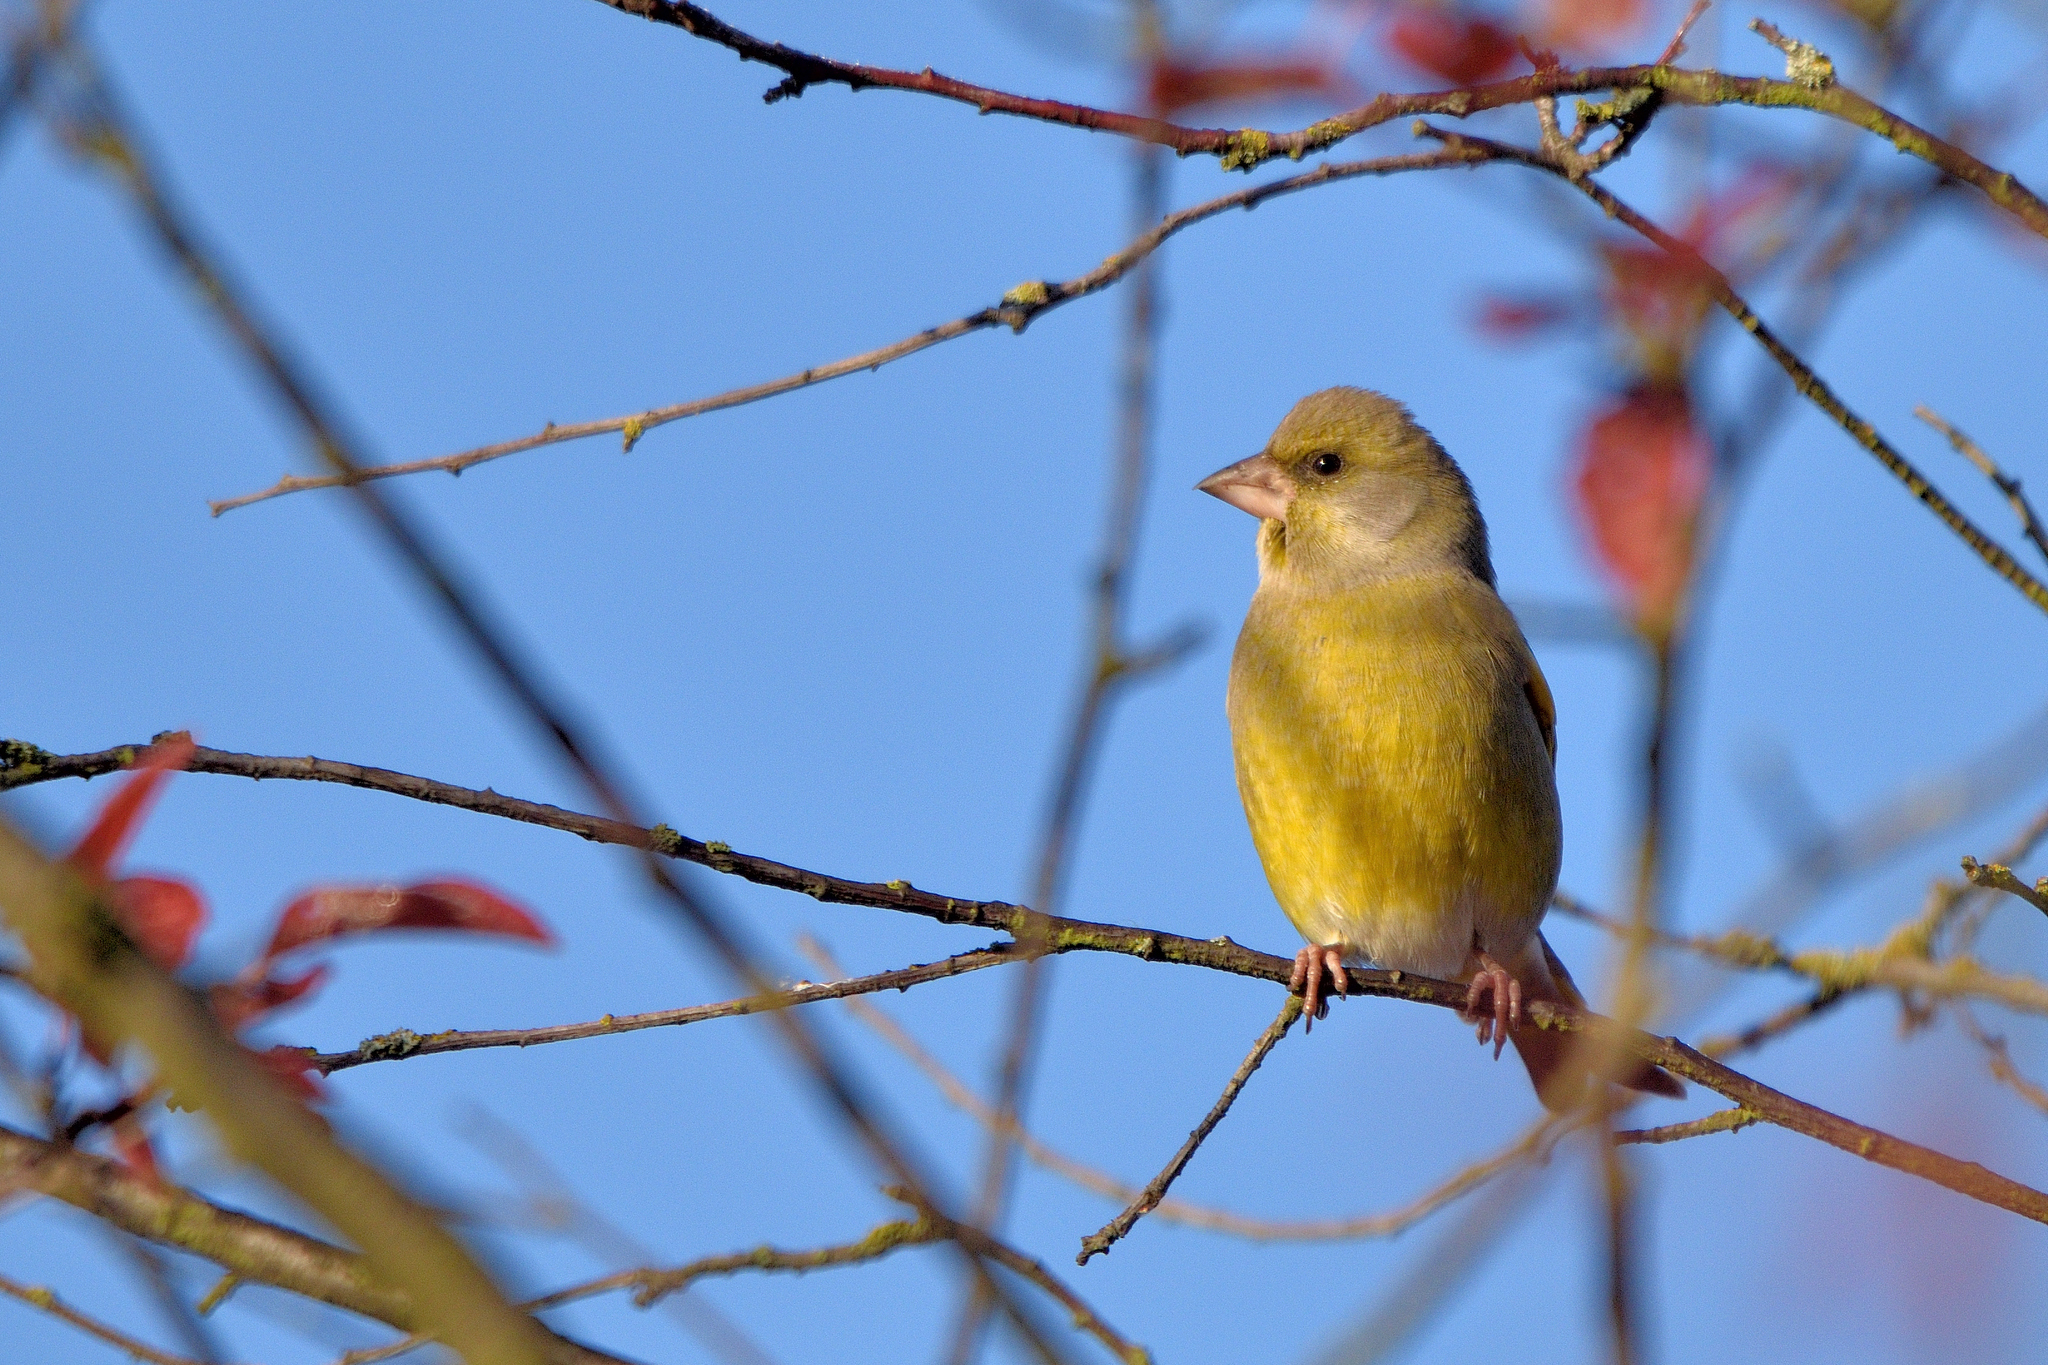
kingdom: Plantae
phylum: Tracheophyta
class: Liliopsida
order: Poales
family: Poaceae
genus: Chloris
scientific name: Chloris chloris
